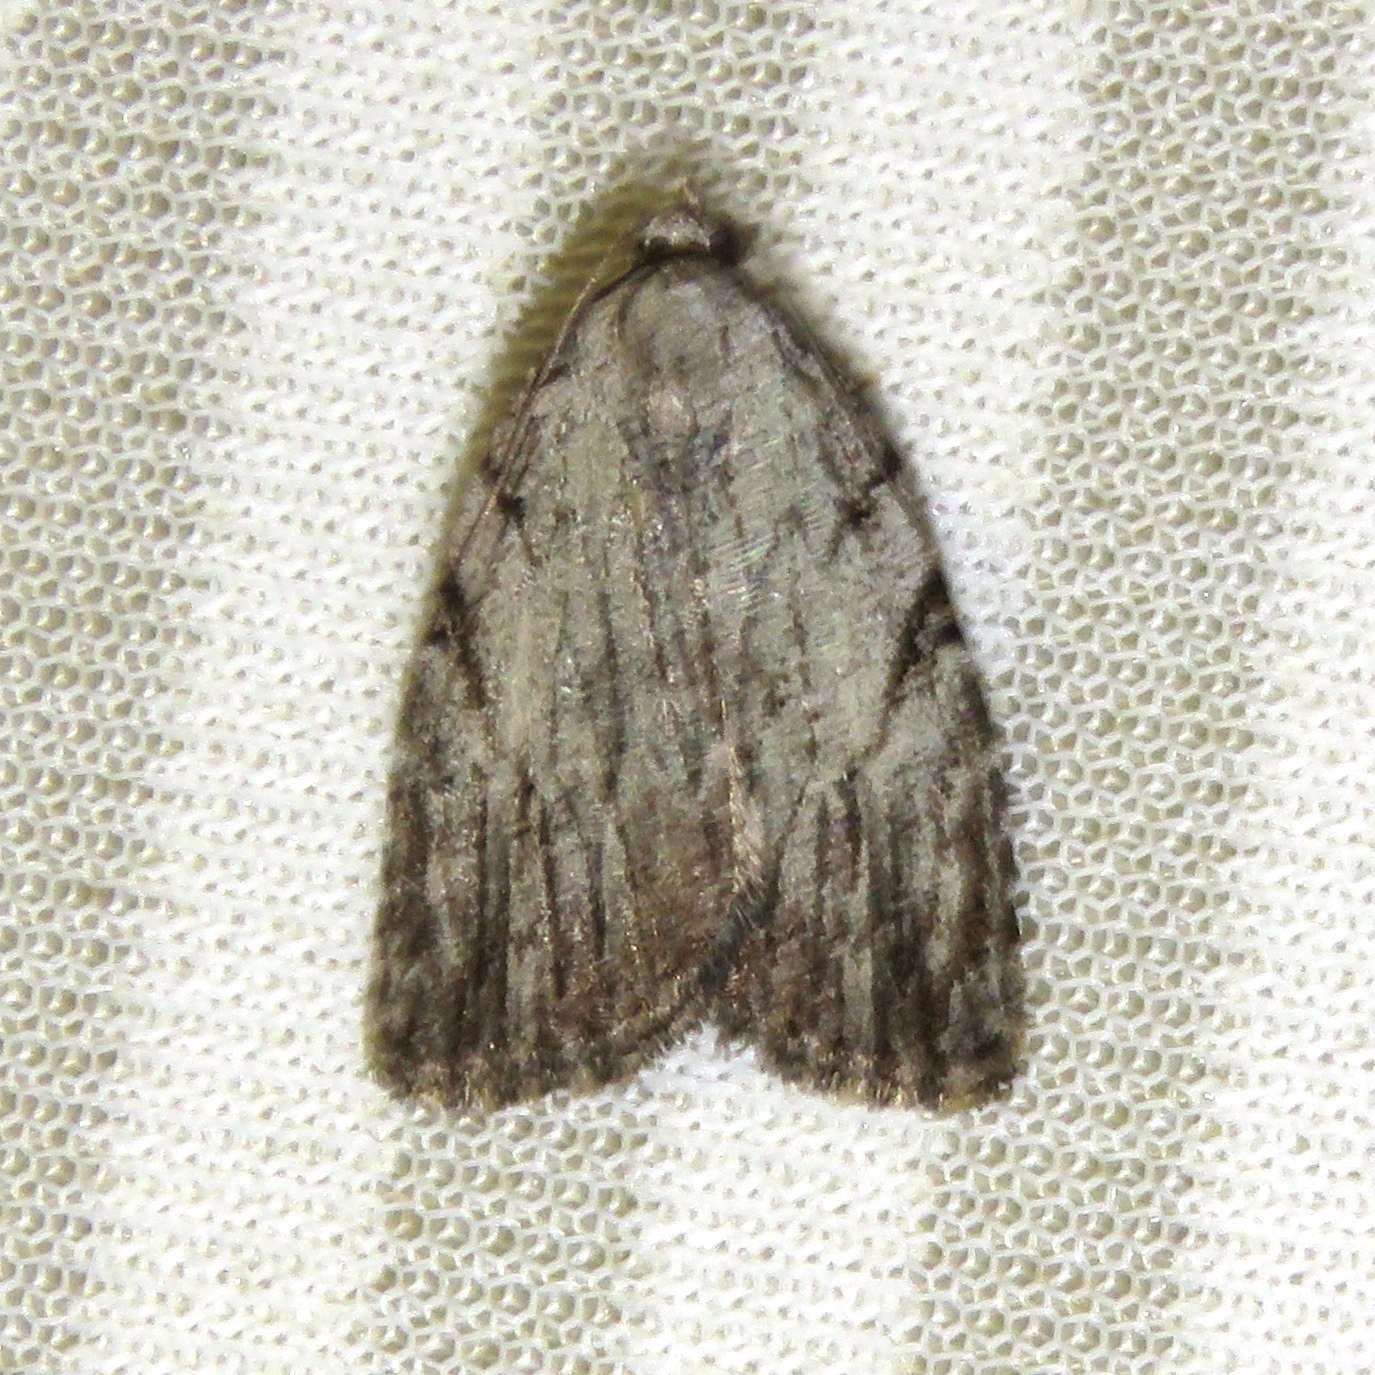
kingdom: Animalia
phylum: Arthropoda
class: Insecta
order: Lepidoptera
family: Noctuidae
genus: Balsa
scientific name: Balsa tristrigella
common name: Three-lined balsa moth
